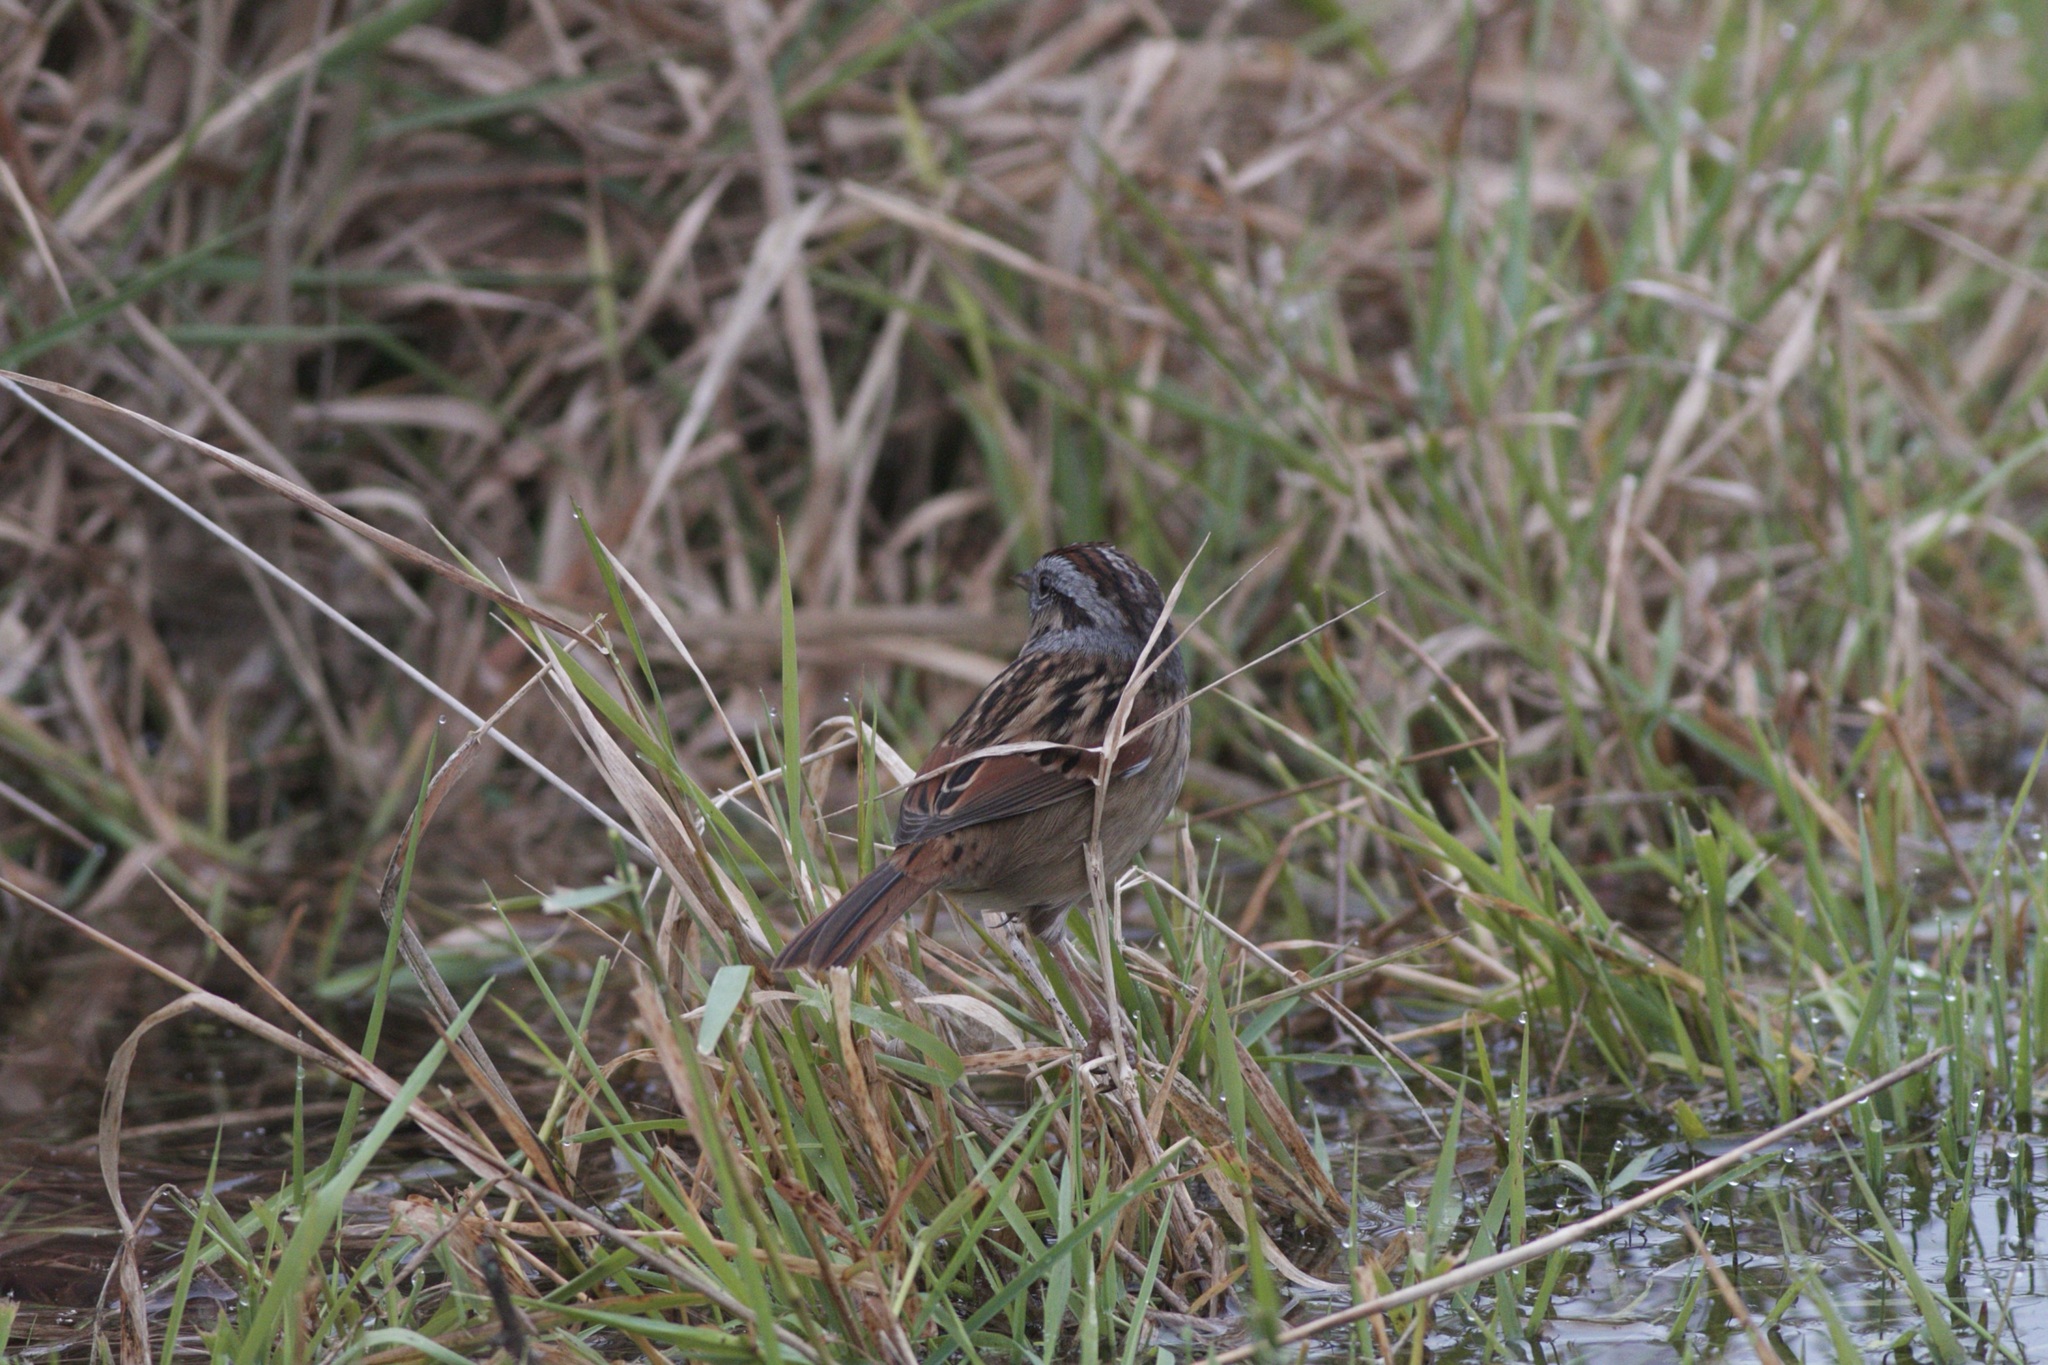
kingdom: Animalia
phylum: Chordata
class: Aves
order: Passeriformes
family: Passerellidae
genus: Melospiza
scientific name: Melospiza georgiana
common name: Swamp sparrow
